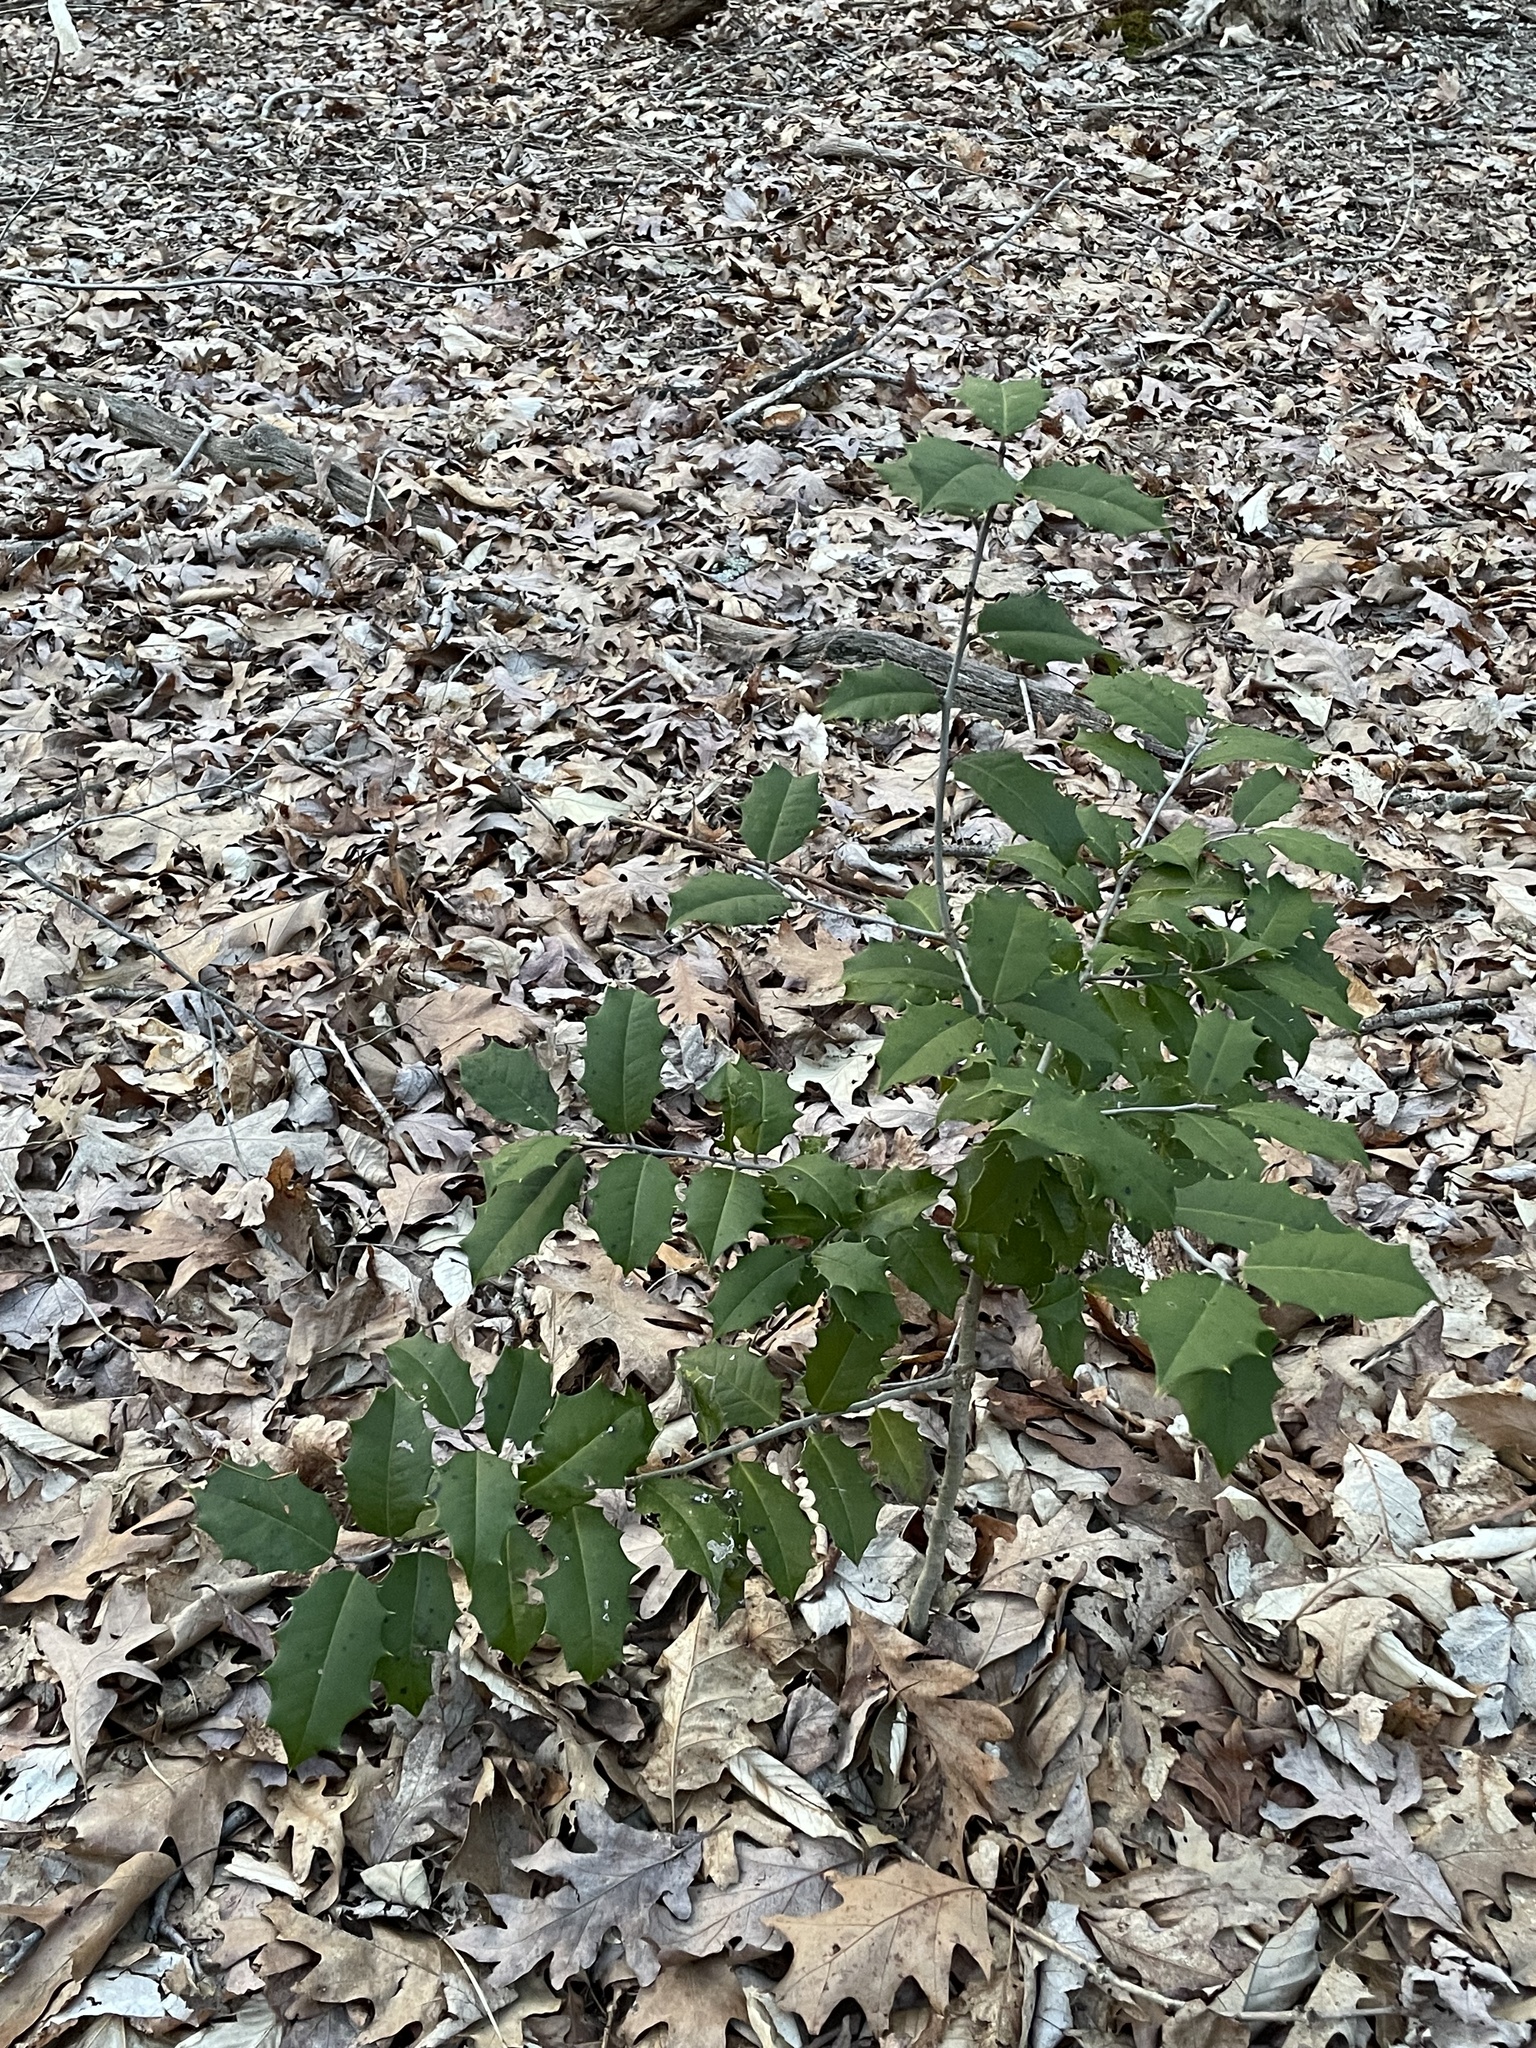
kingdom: Plantae
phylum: Tracheophyta
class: Magnoliopsida
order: Aquifoliales
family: Aquifoliaceae
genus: Ilex
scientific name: Ilex opaca
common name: American holly
